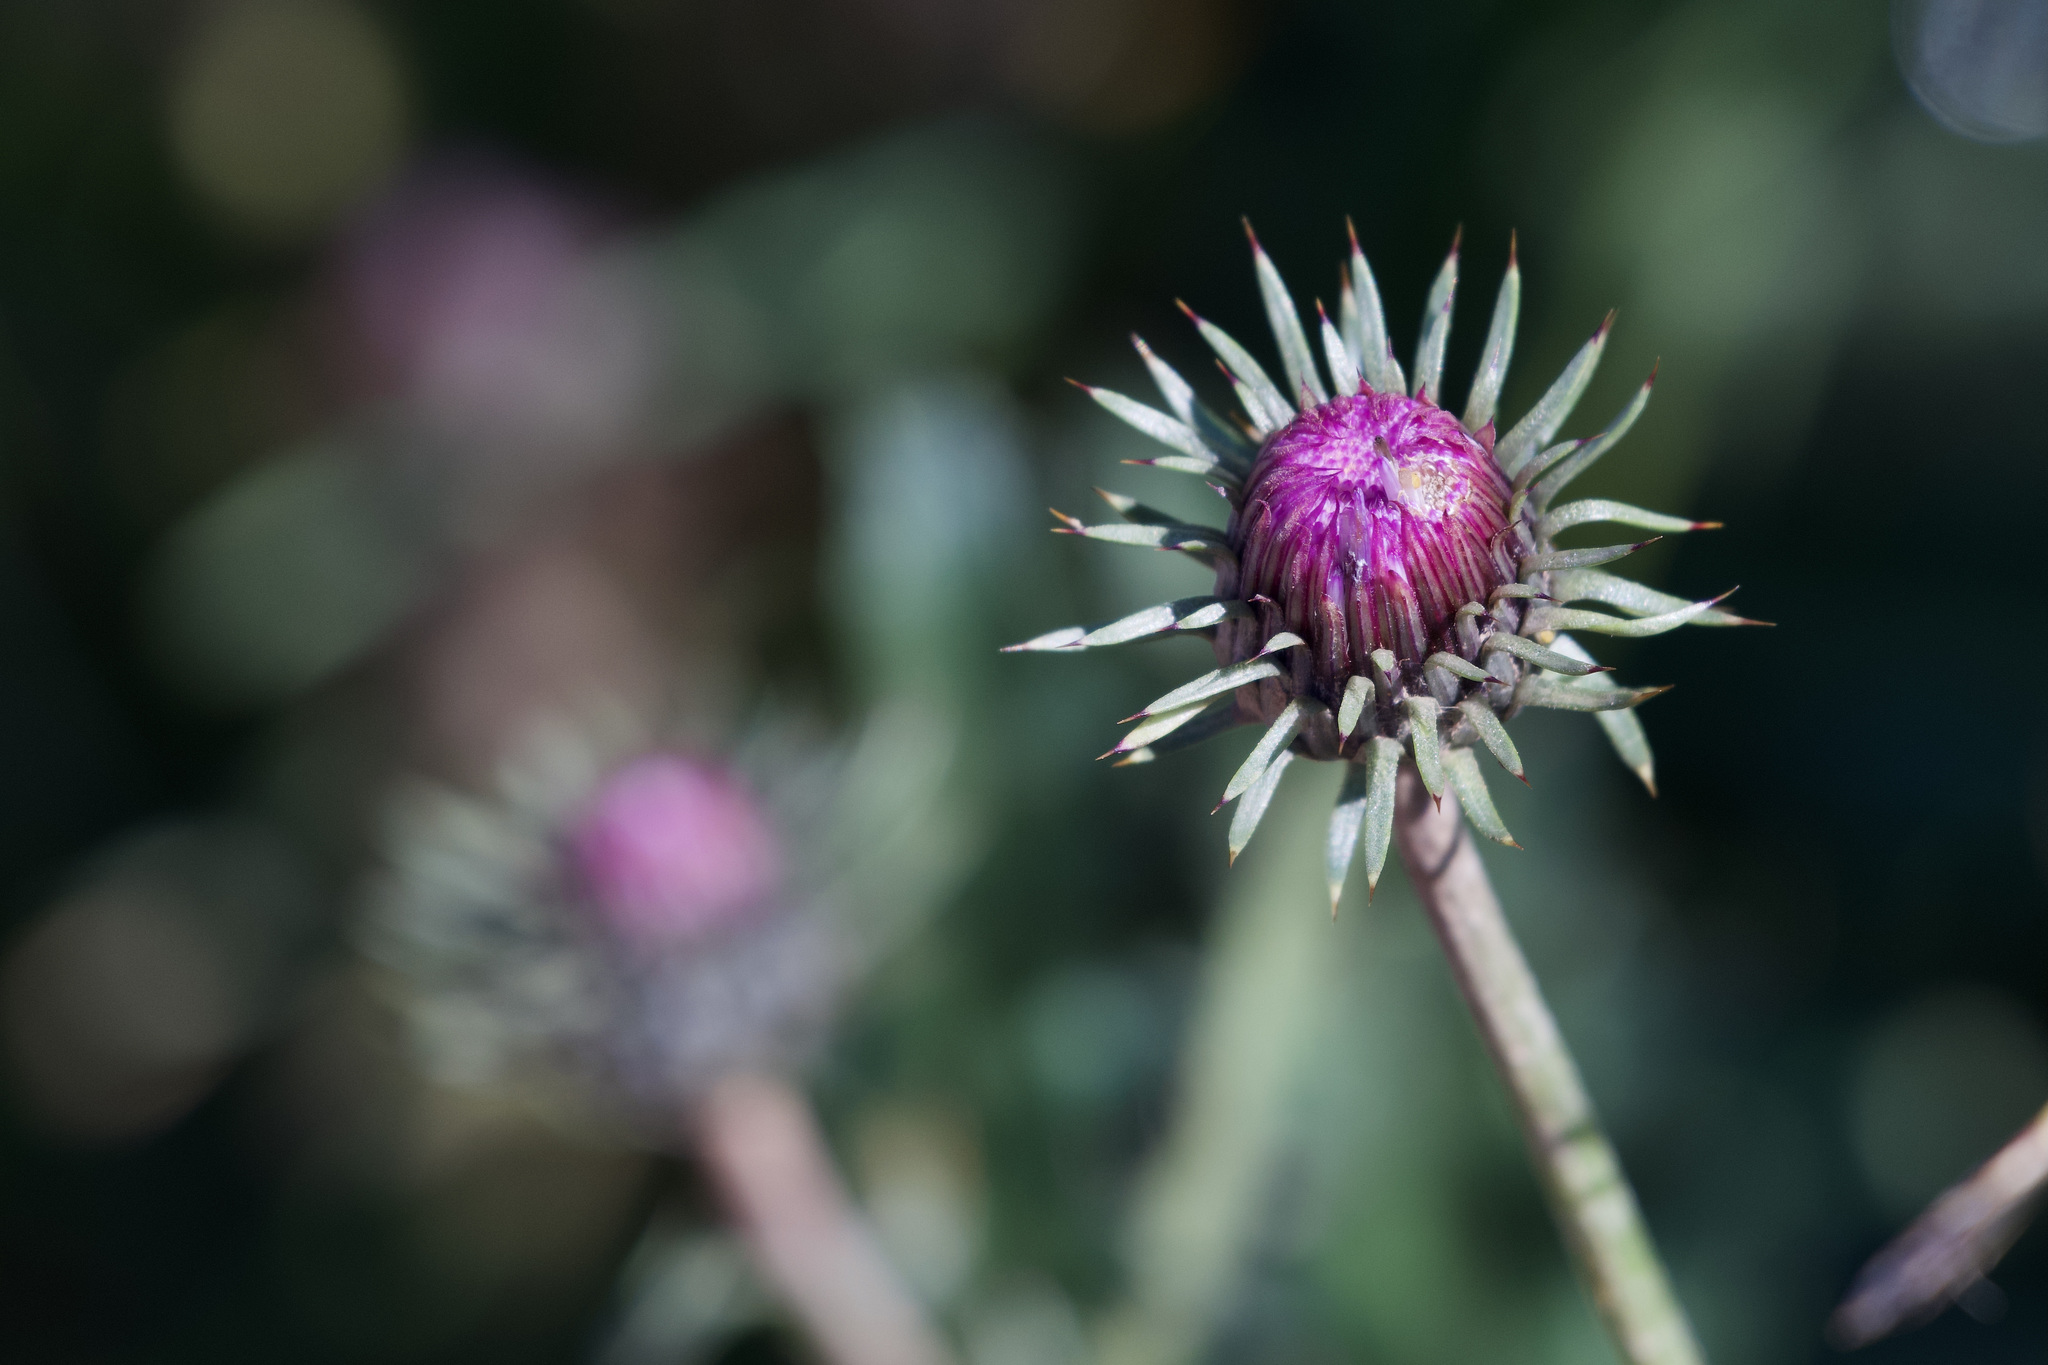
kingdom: Plantae
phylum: Tracheophyta
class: Magnoliopsida
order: Asterales
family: Asteraceae
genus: Carduus
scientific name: Carduus defloratus
